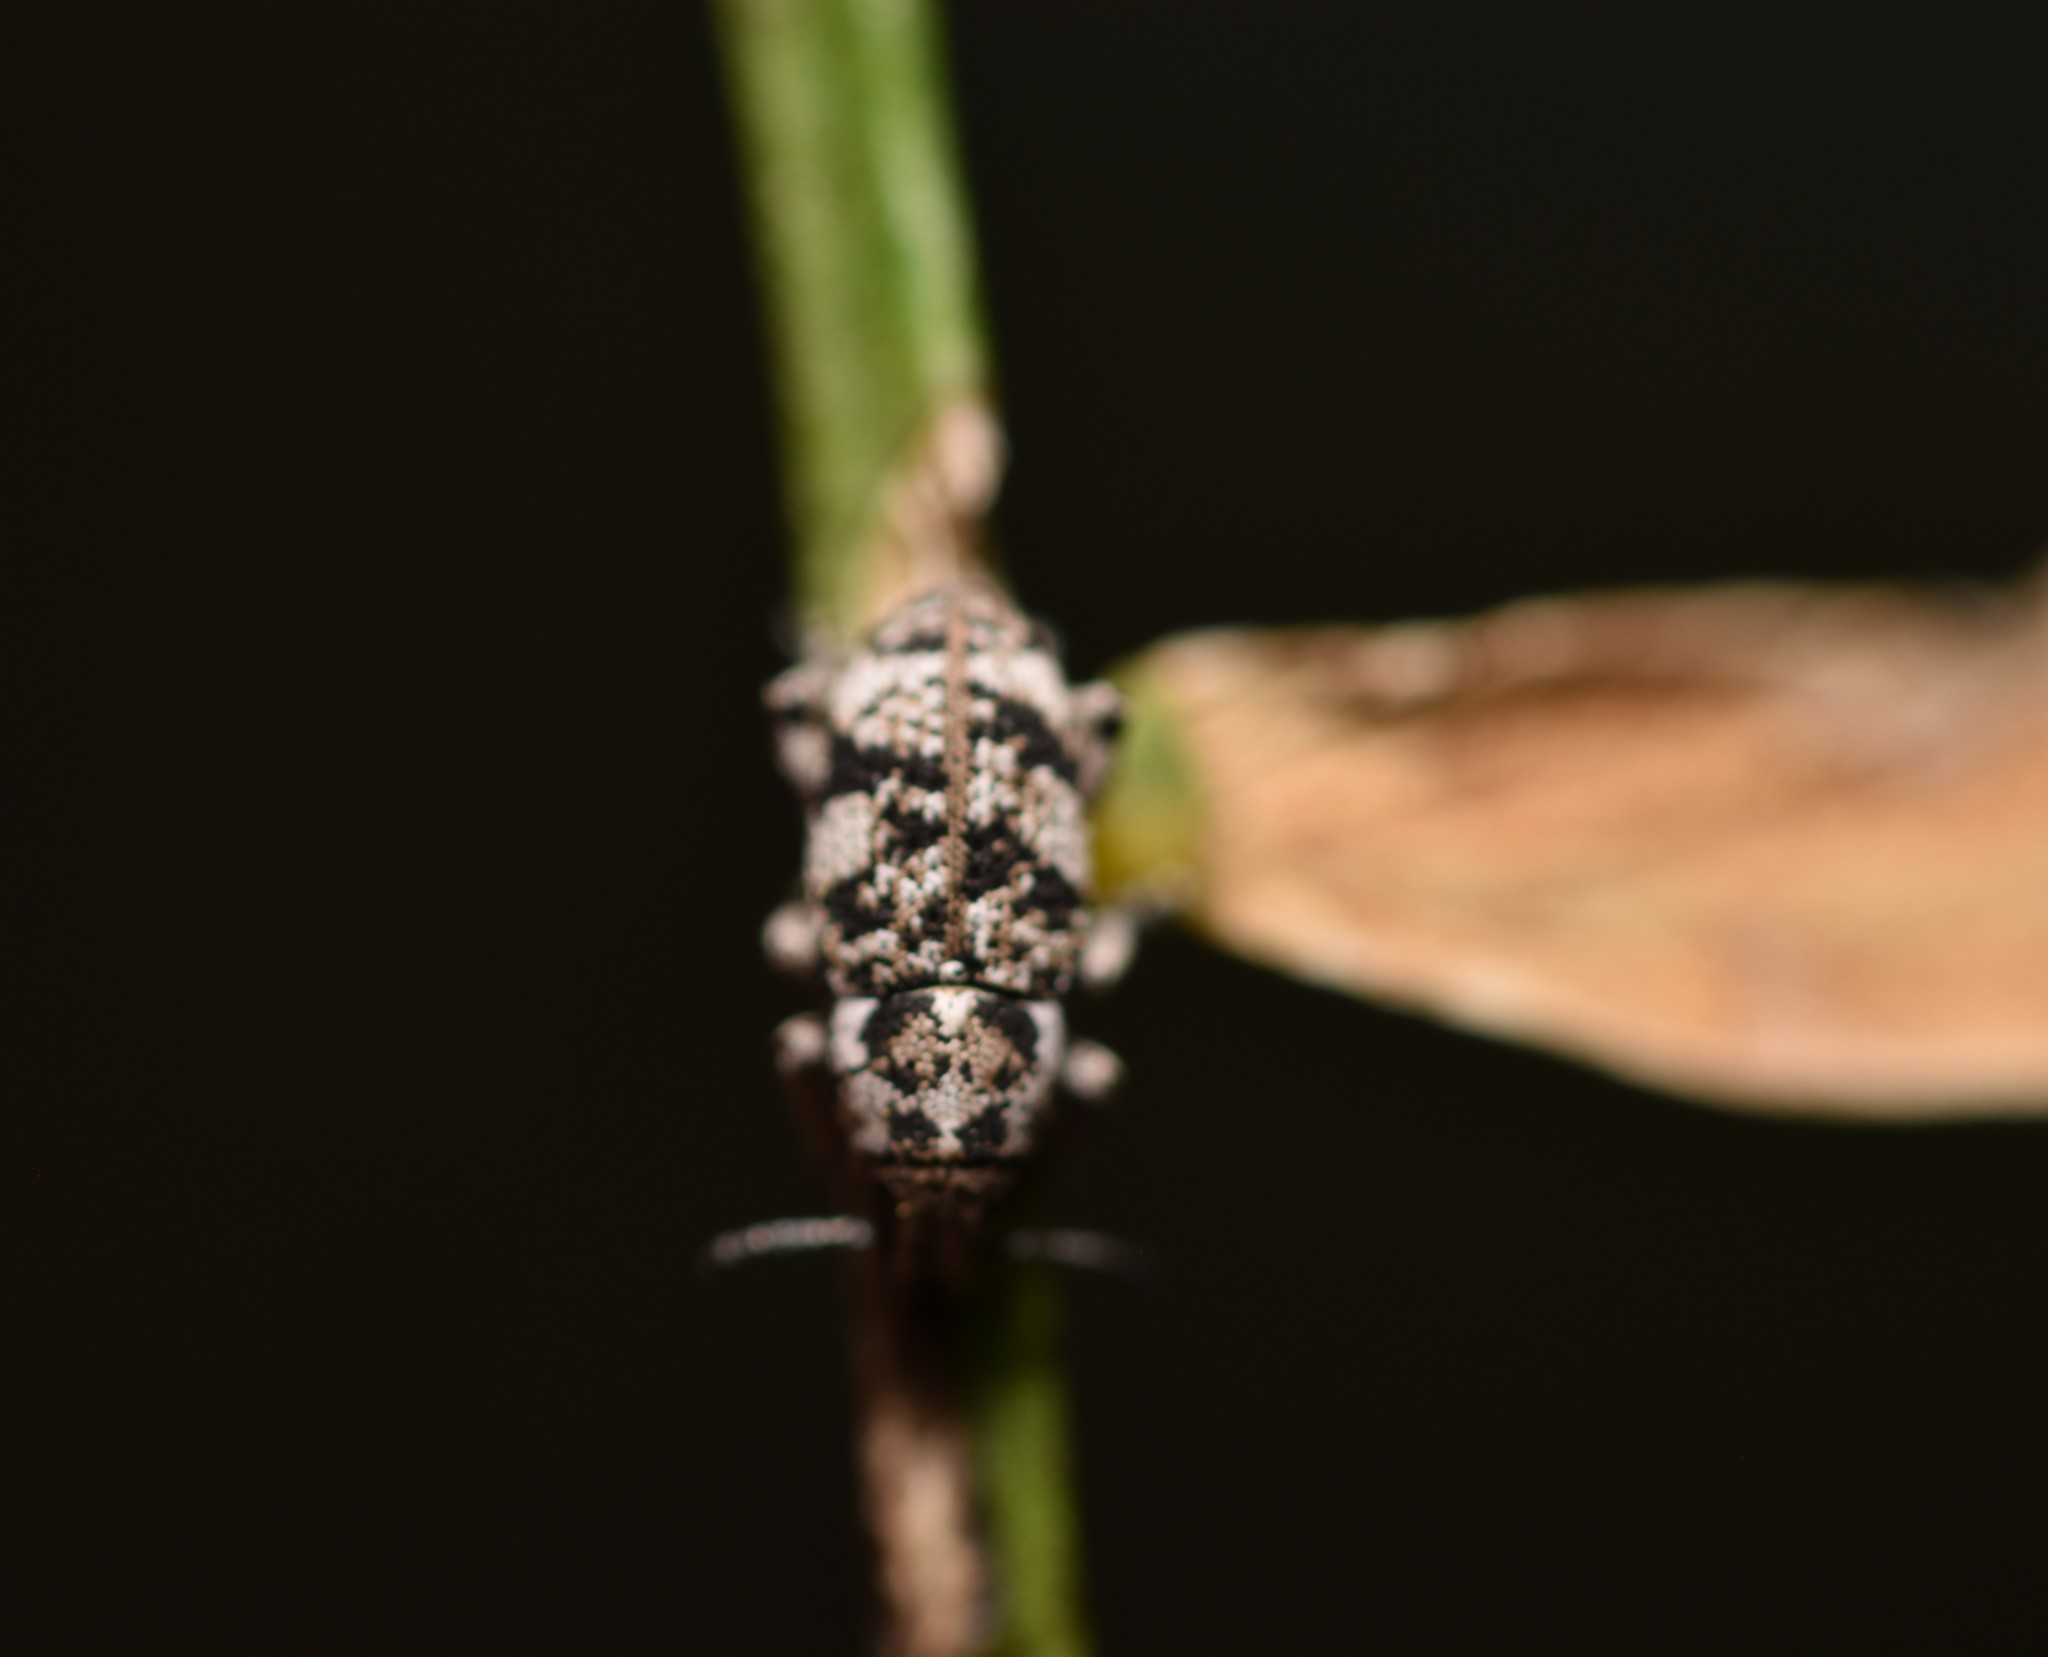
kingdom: Animalia
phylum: Arthropoda
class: Insecta
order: Coleoptera
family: Curculionidae
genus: Colecerus
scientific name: Colecerus marmoratus
